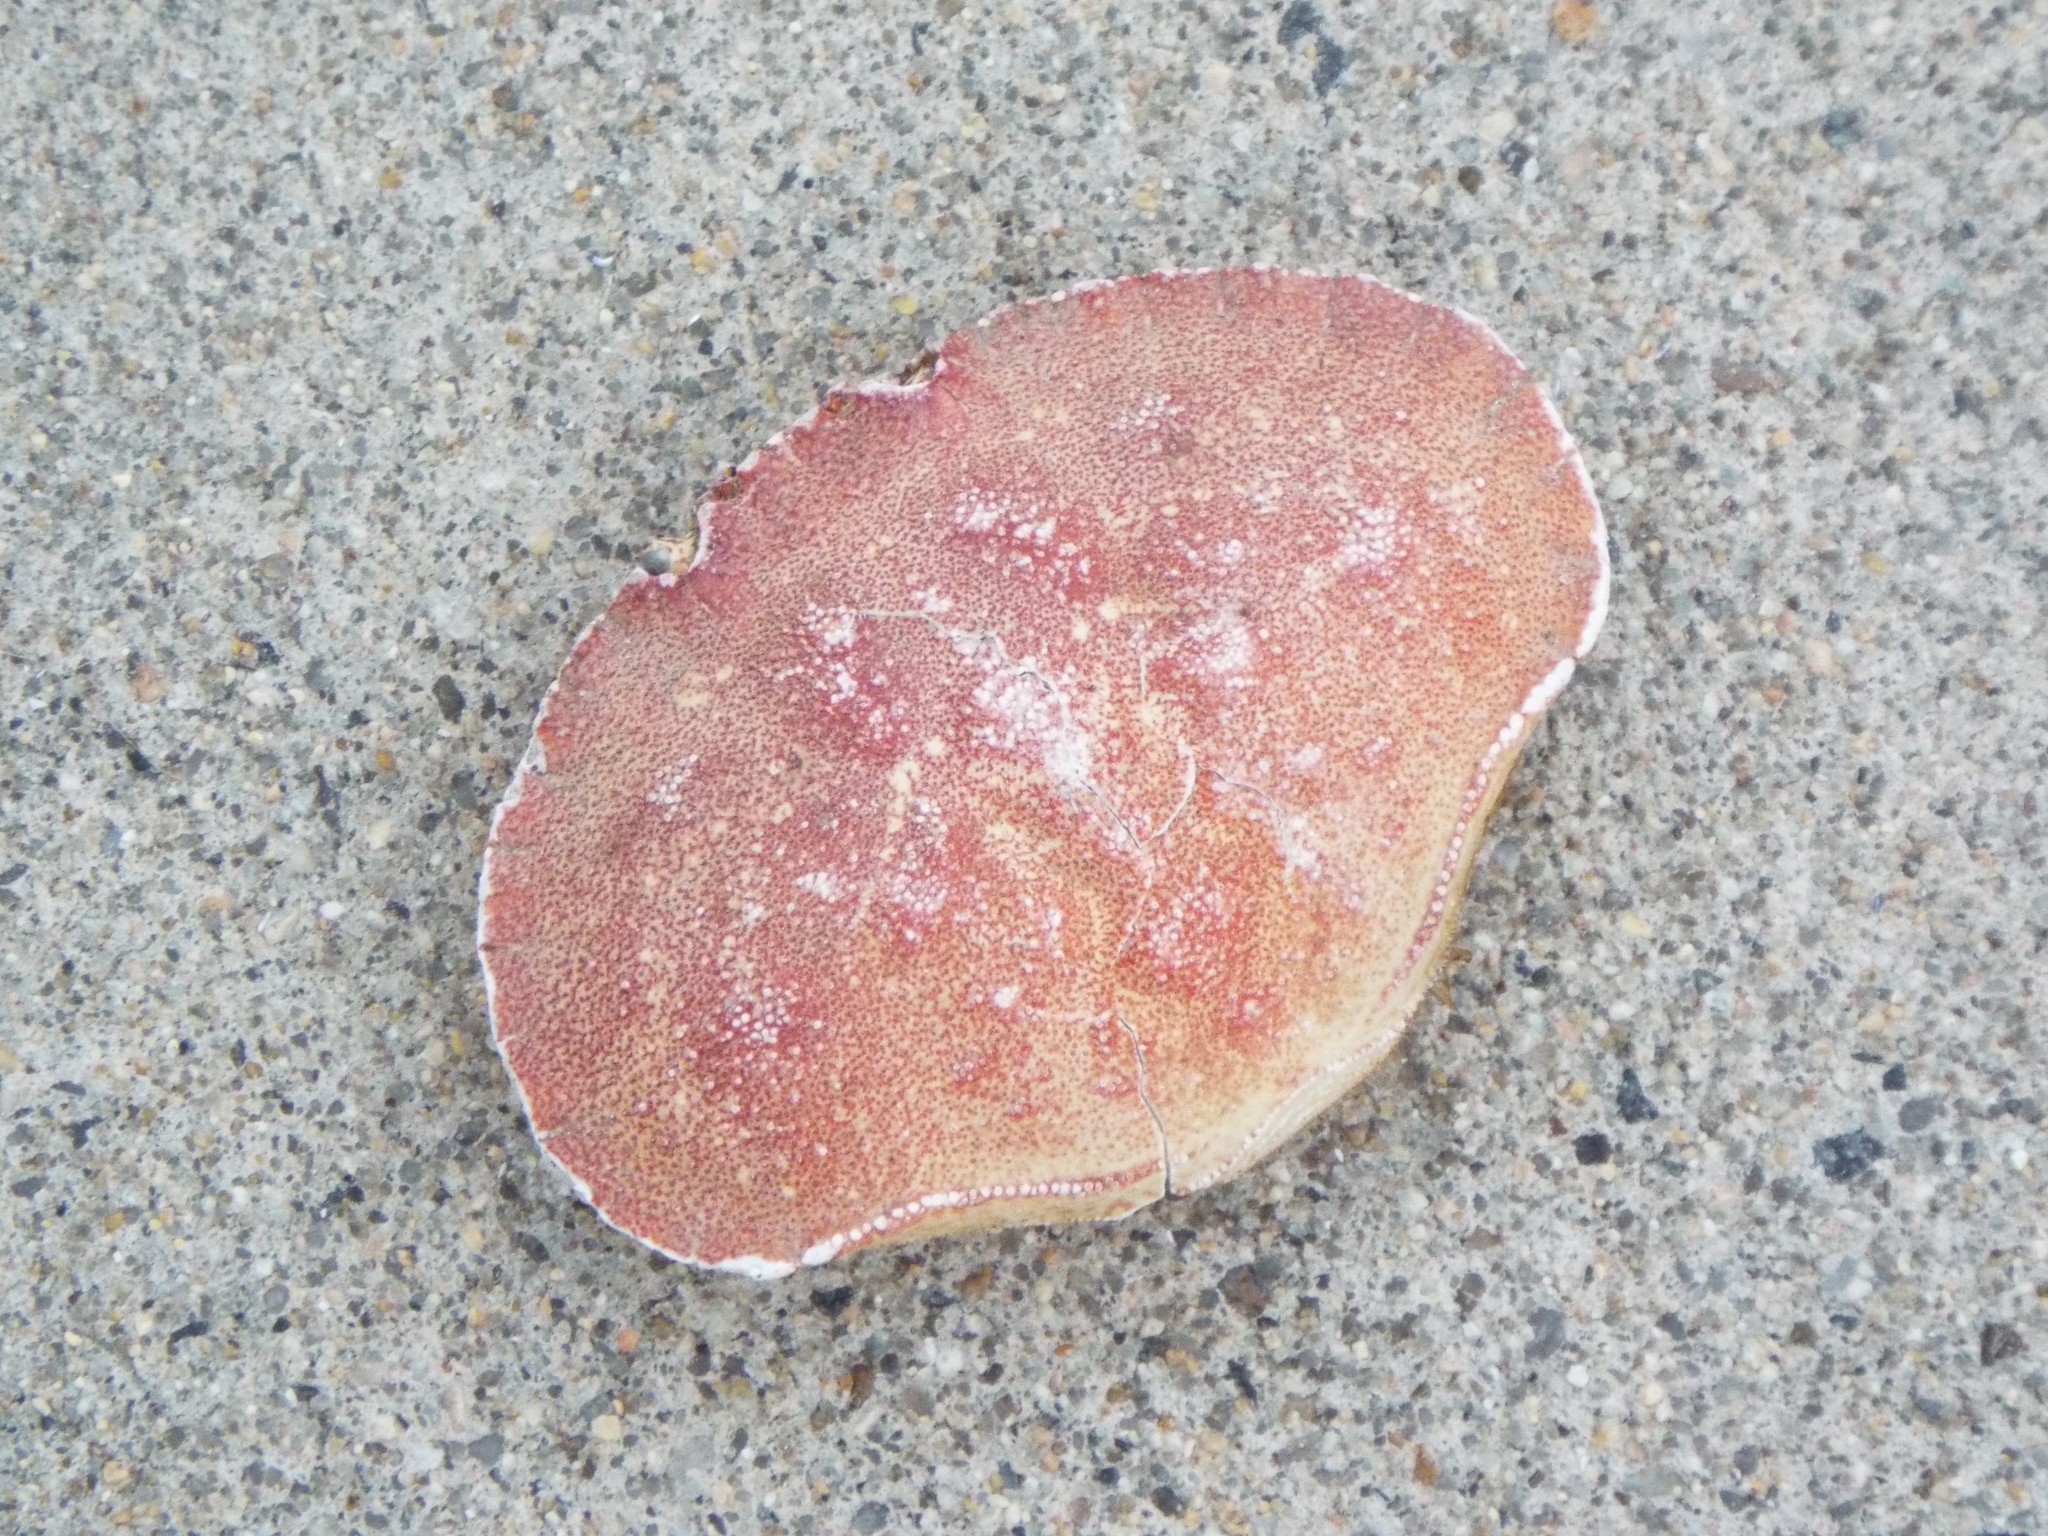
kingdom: Animalia
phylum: Arthropoda
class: Malacostraca
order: Decapoda
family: Cancridae
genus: Cancer
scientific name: Cancer borealis
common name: Jonah crab
